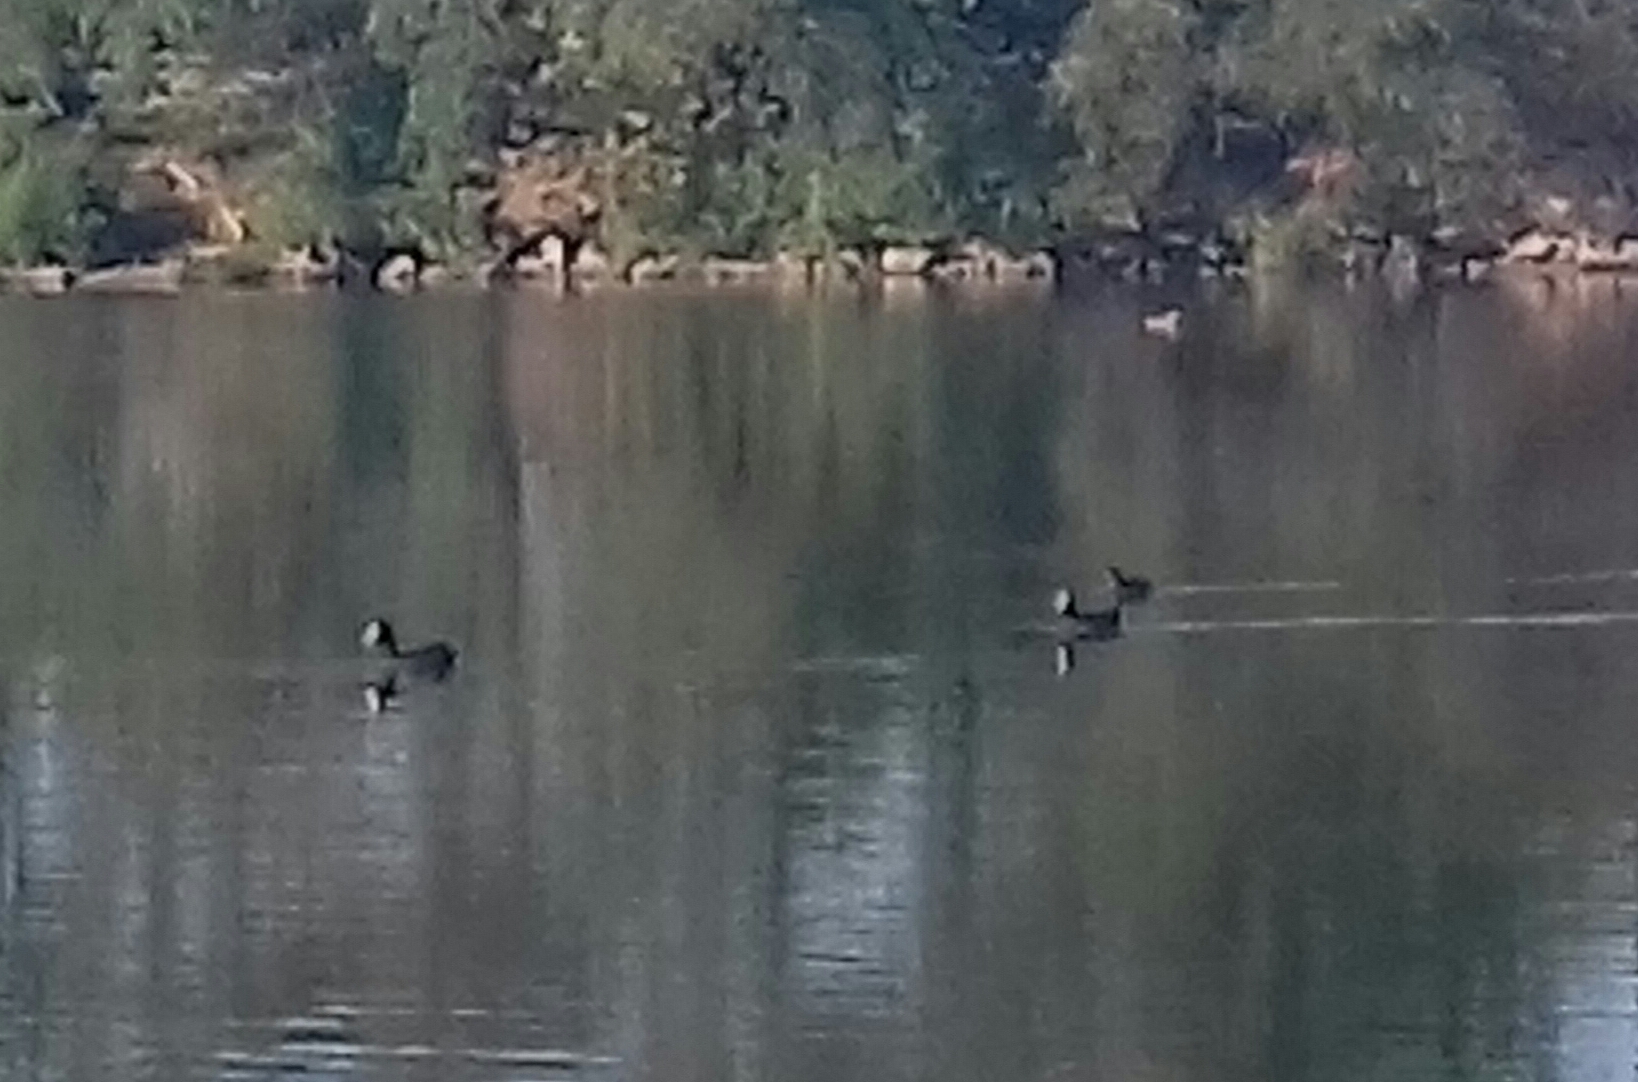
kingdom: Animalia
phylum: Chordata
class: Aves
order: Gruiformes
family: Rallidae
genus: Fulica
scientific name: Fulica atra
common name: Eurasian coot
